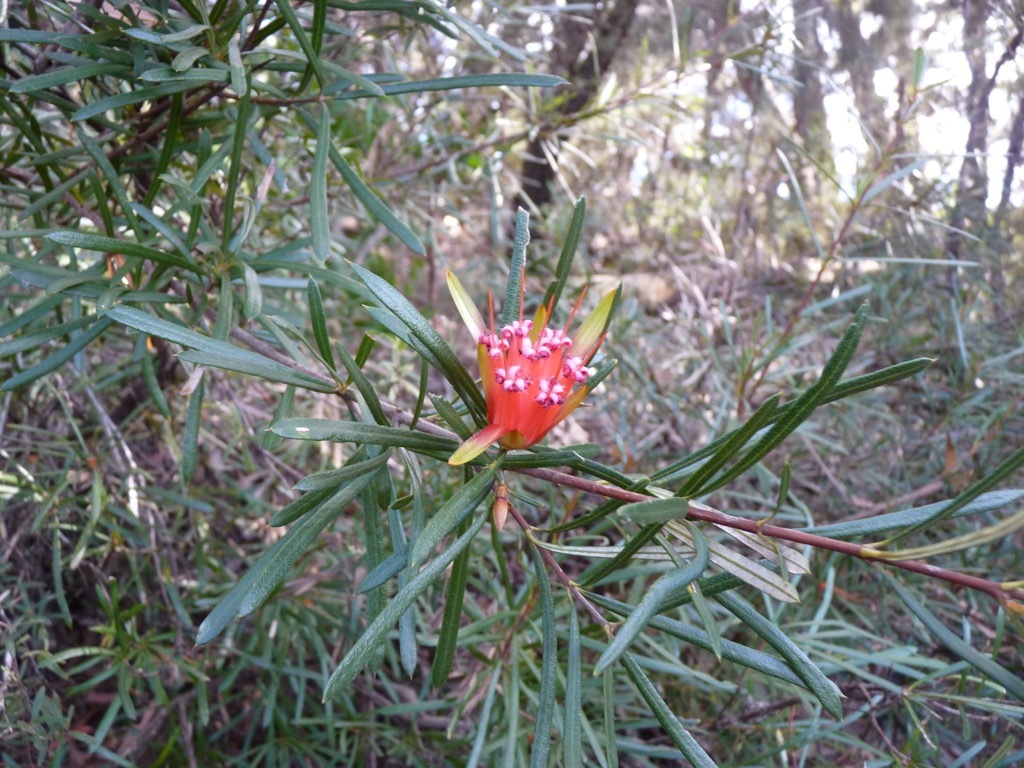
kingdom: Plantae
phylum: Tracheophyta
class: Magnoliopsida
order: Proteales
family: Proteaceae
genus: Lambertia
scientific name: Lambertia formosa
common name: Mountain-devil
